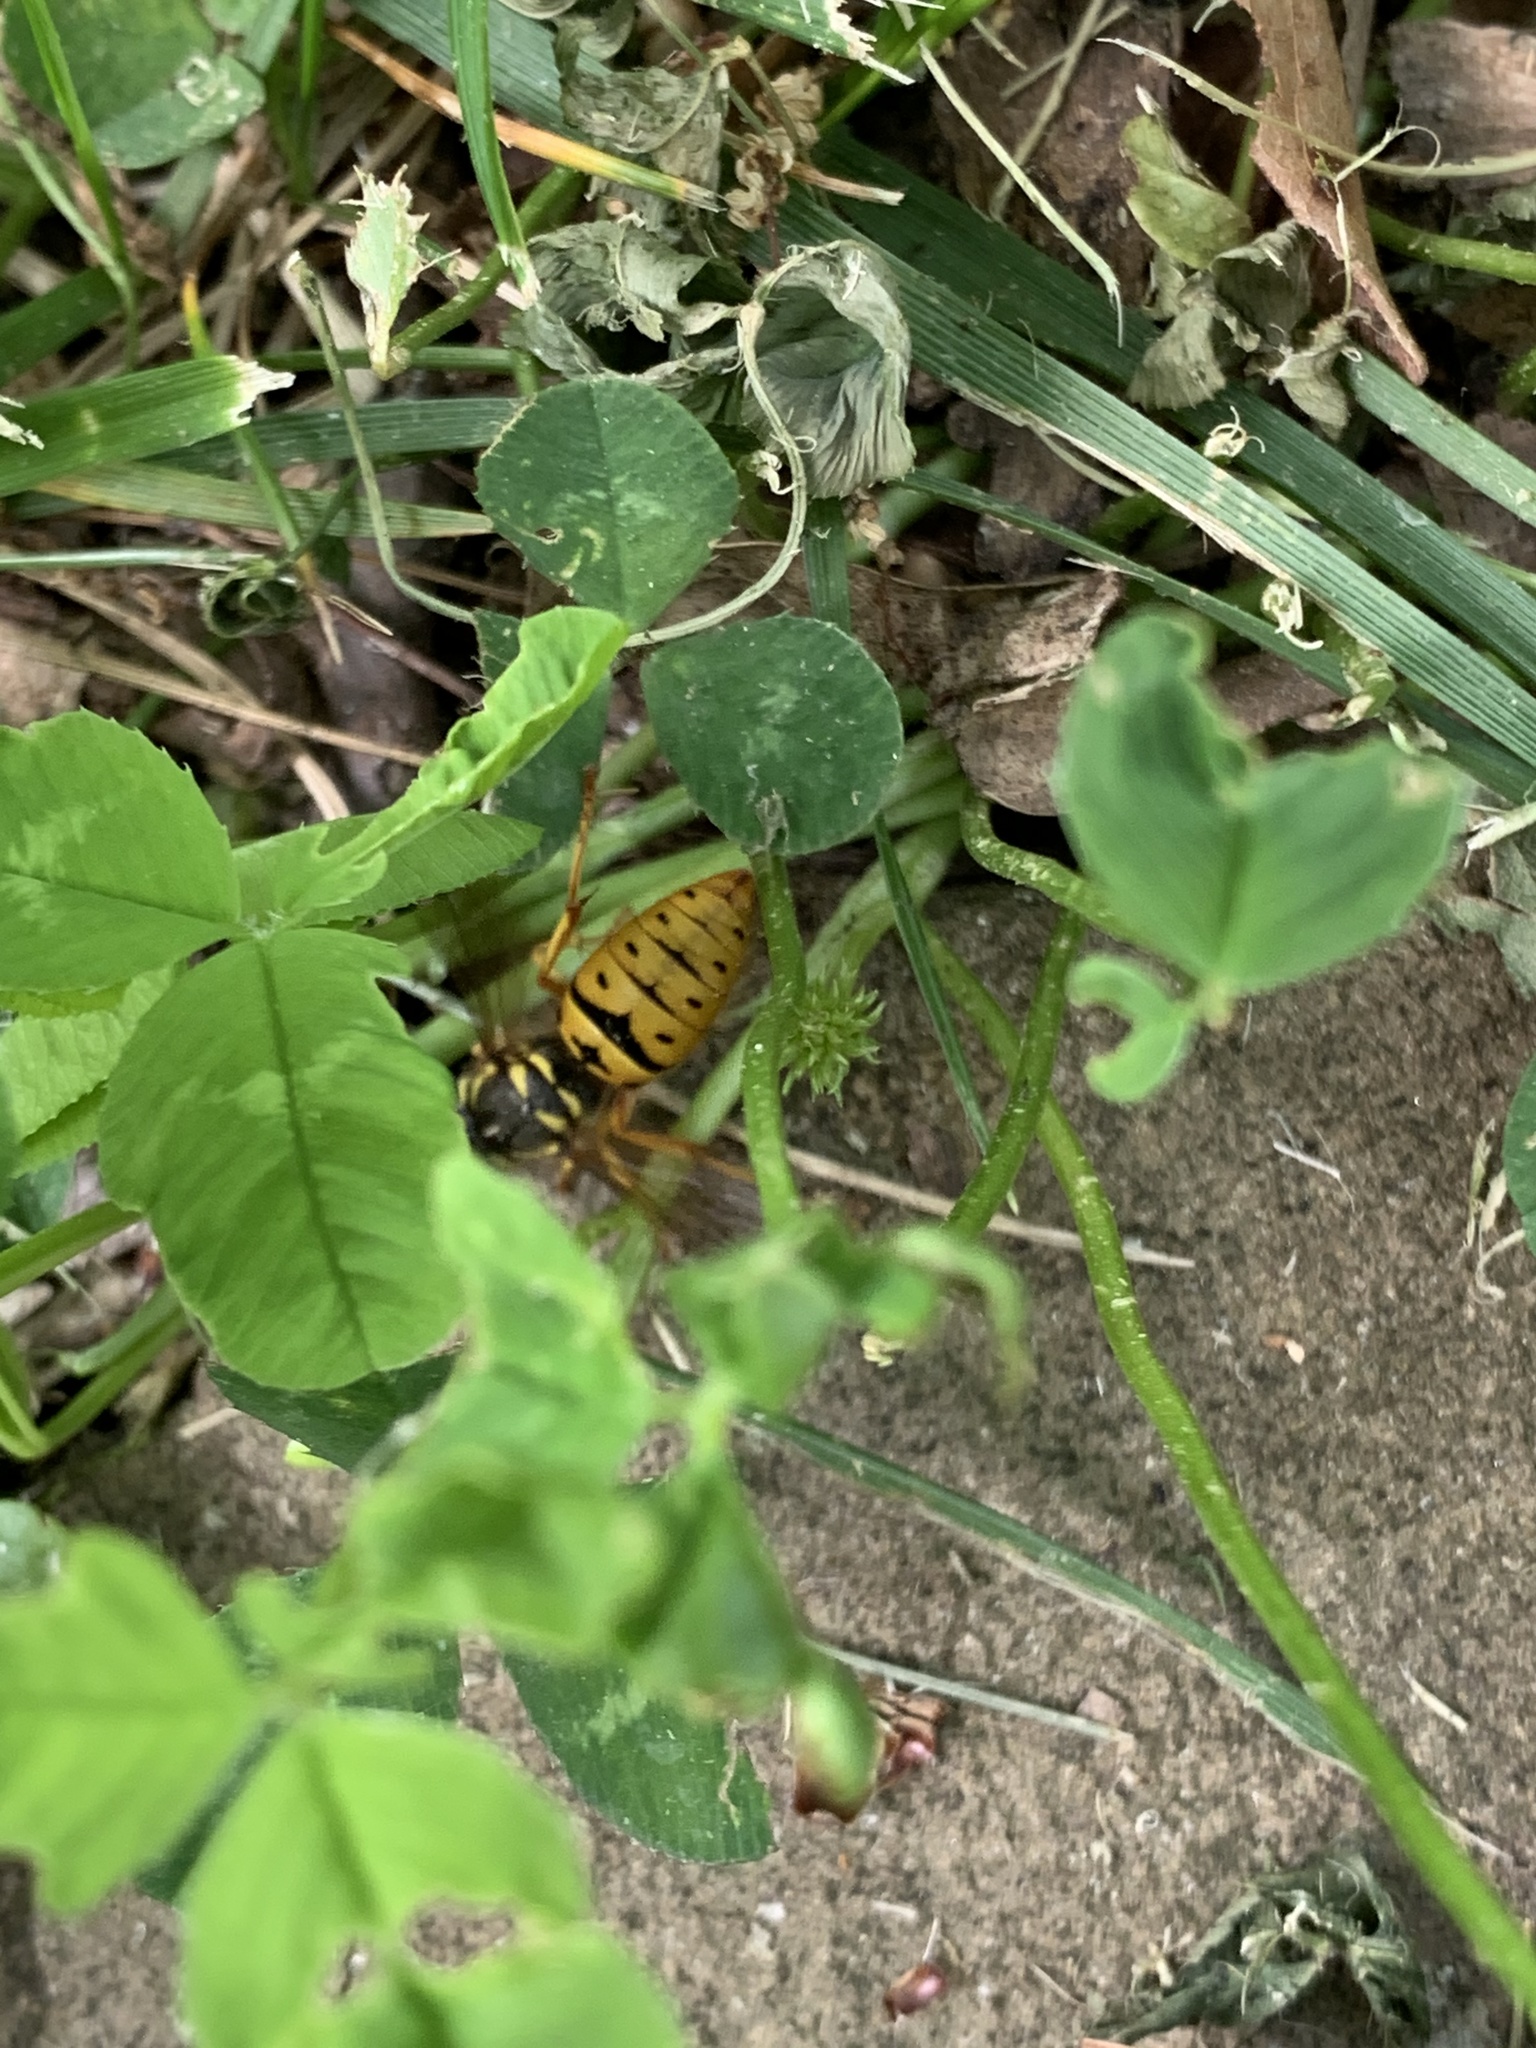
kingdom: Animalia
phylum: Arthropoda
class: Insecta
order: Hymenoptera
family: Vespidae
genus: Vespula
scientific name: Vespula maculifrons
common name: Eastern yellowjacket
